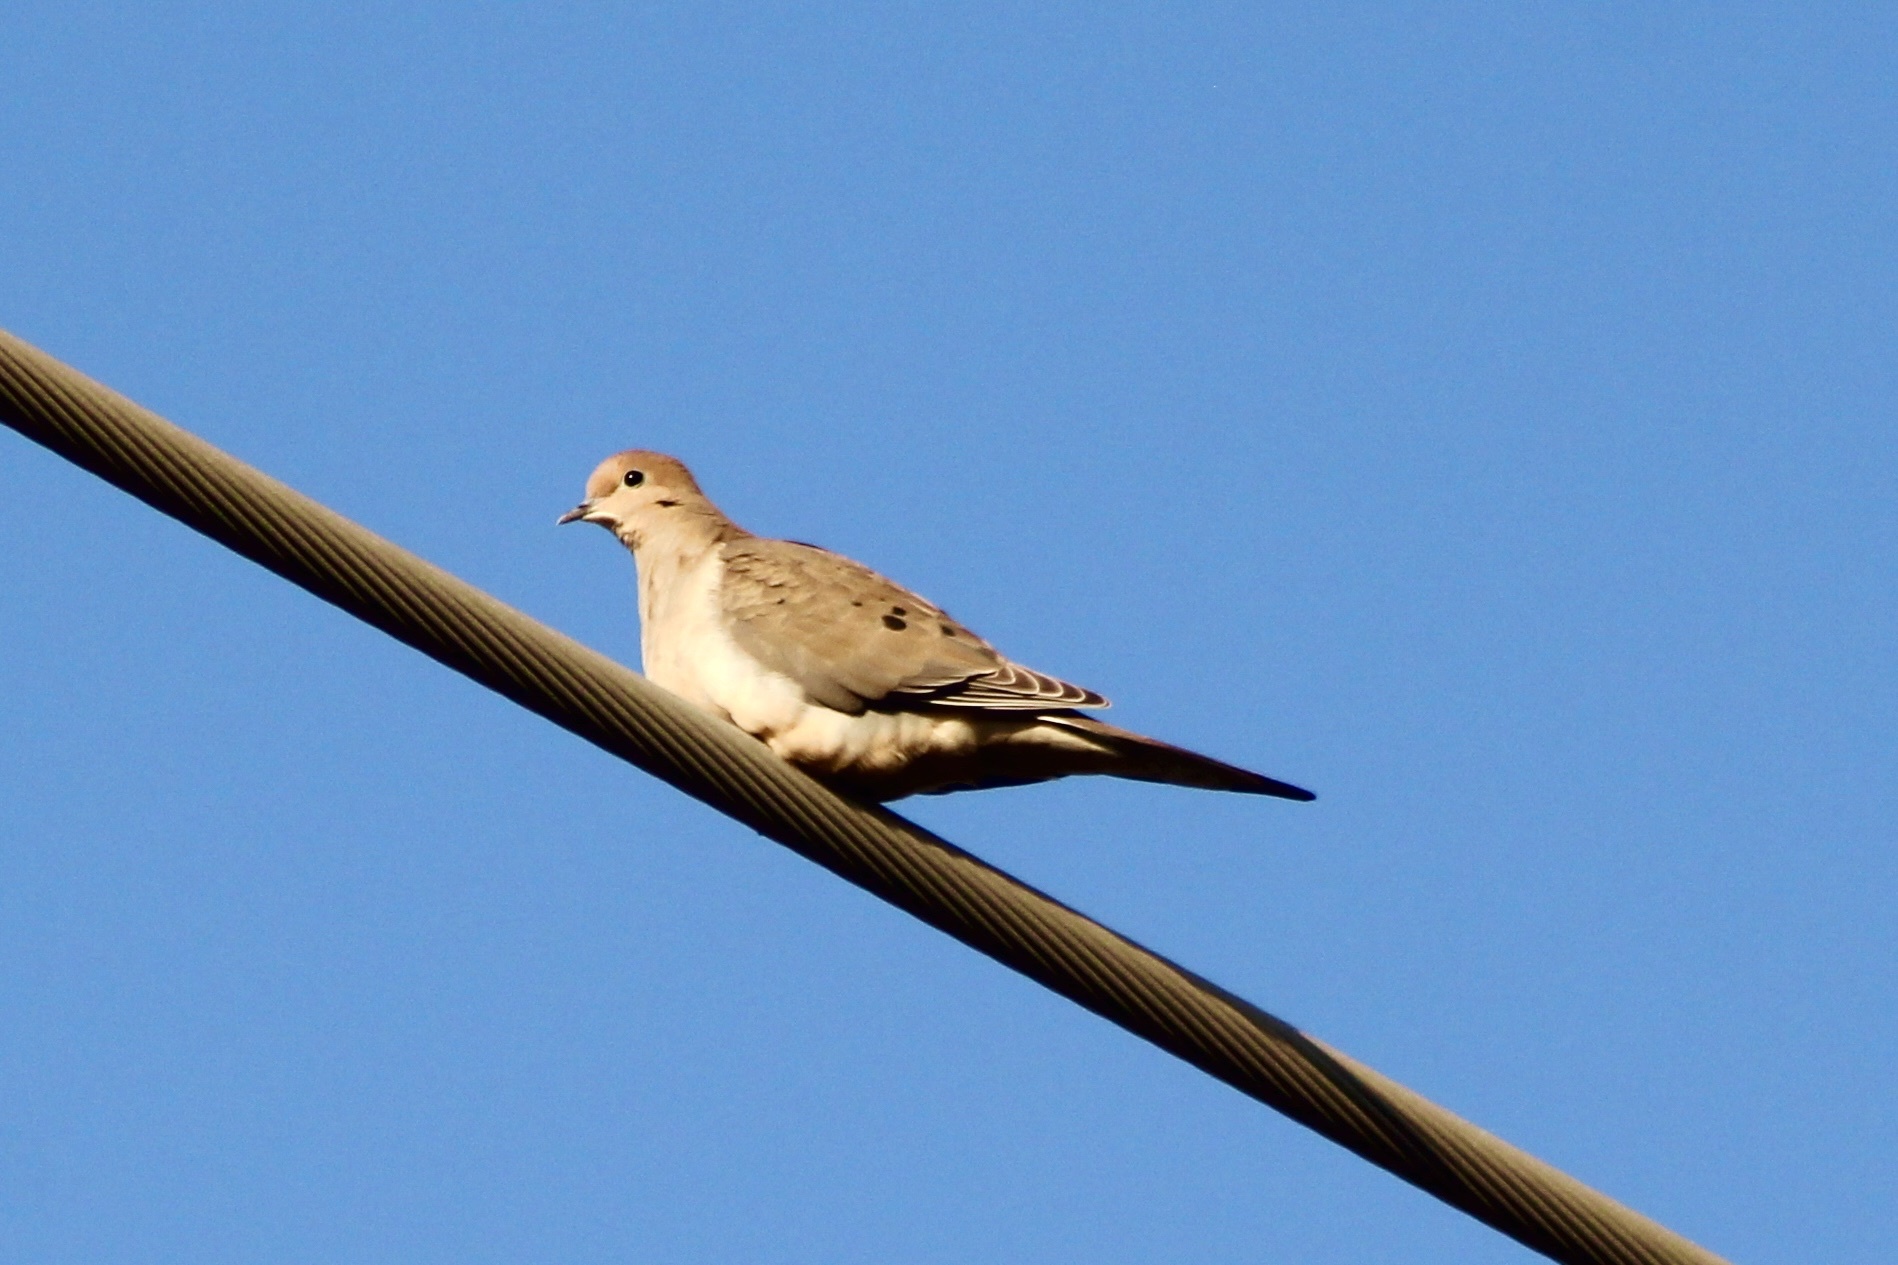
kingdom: Animalia
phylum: Chordata
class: Aves
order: Columbiformes
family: Columbidae
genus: Zenaida
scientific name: Zenaida macroura
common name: Mourning dove
